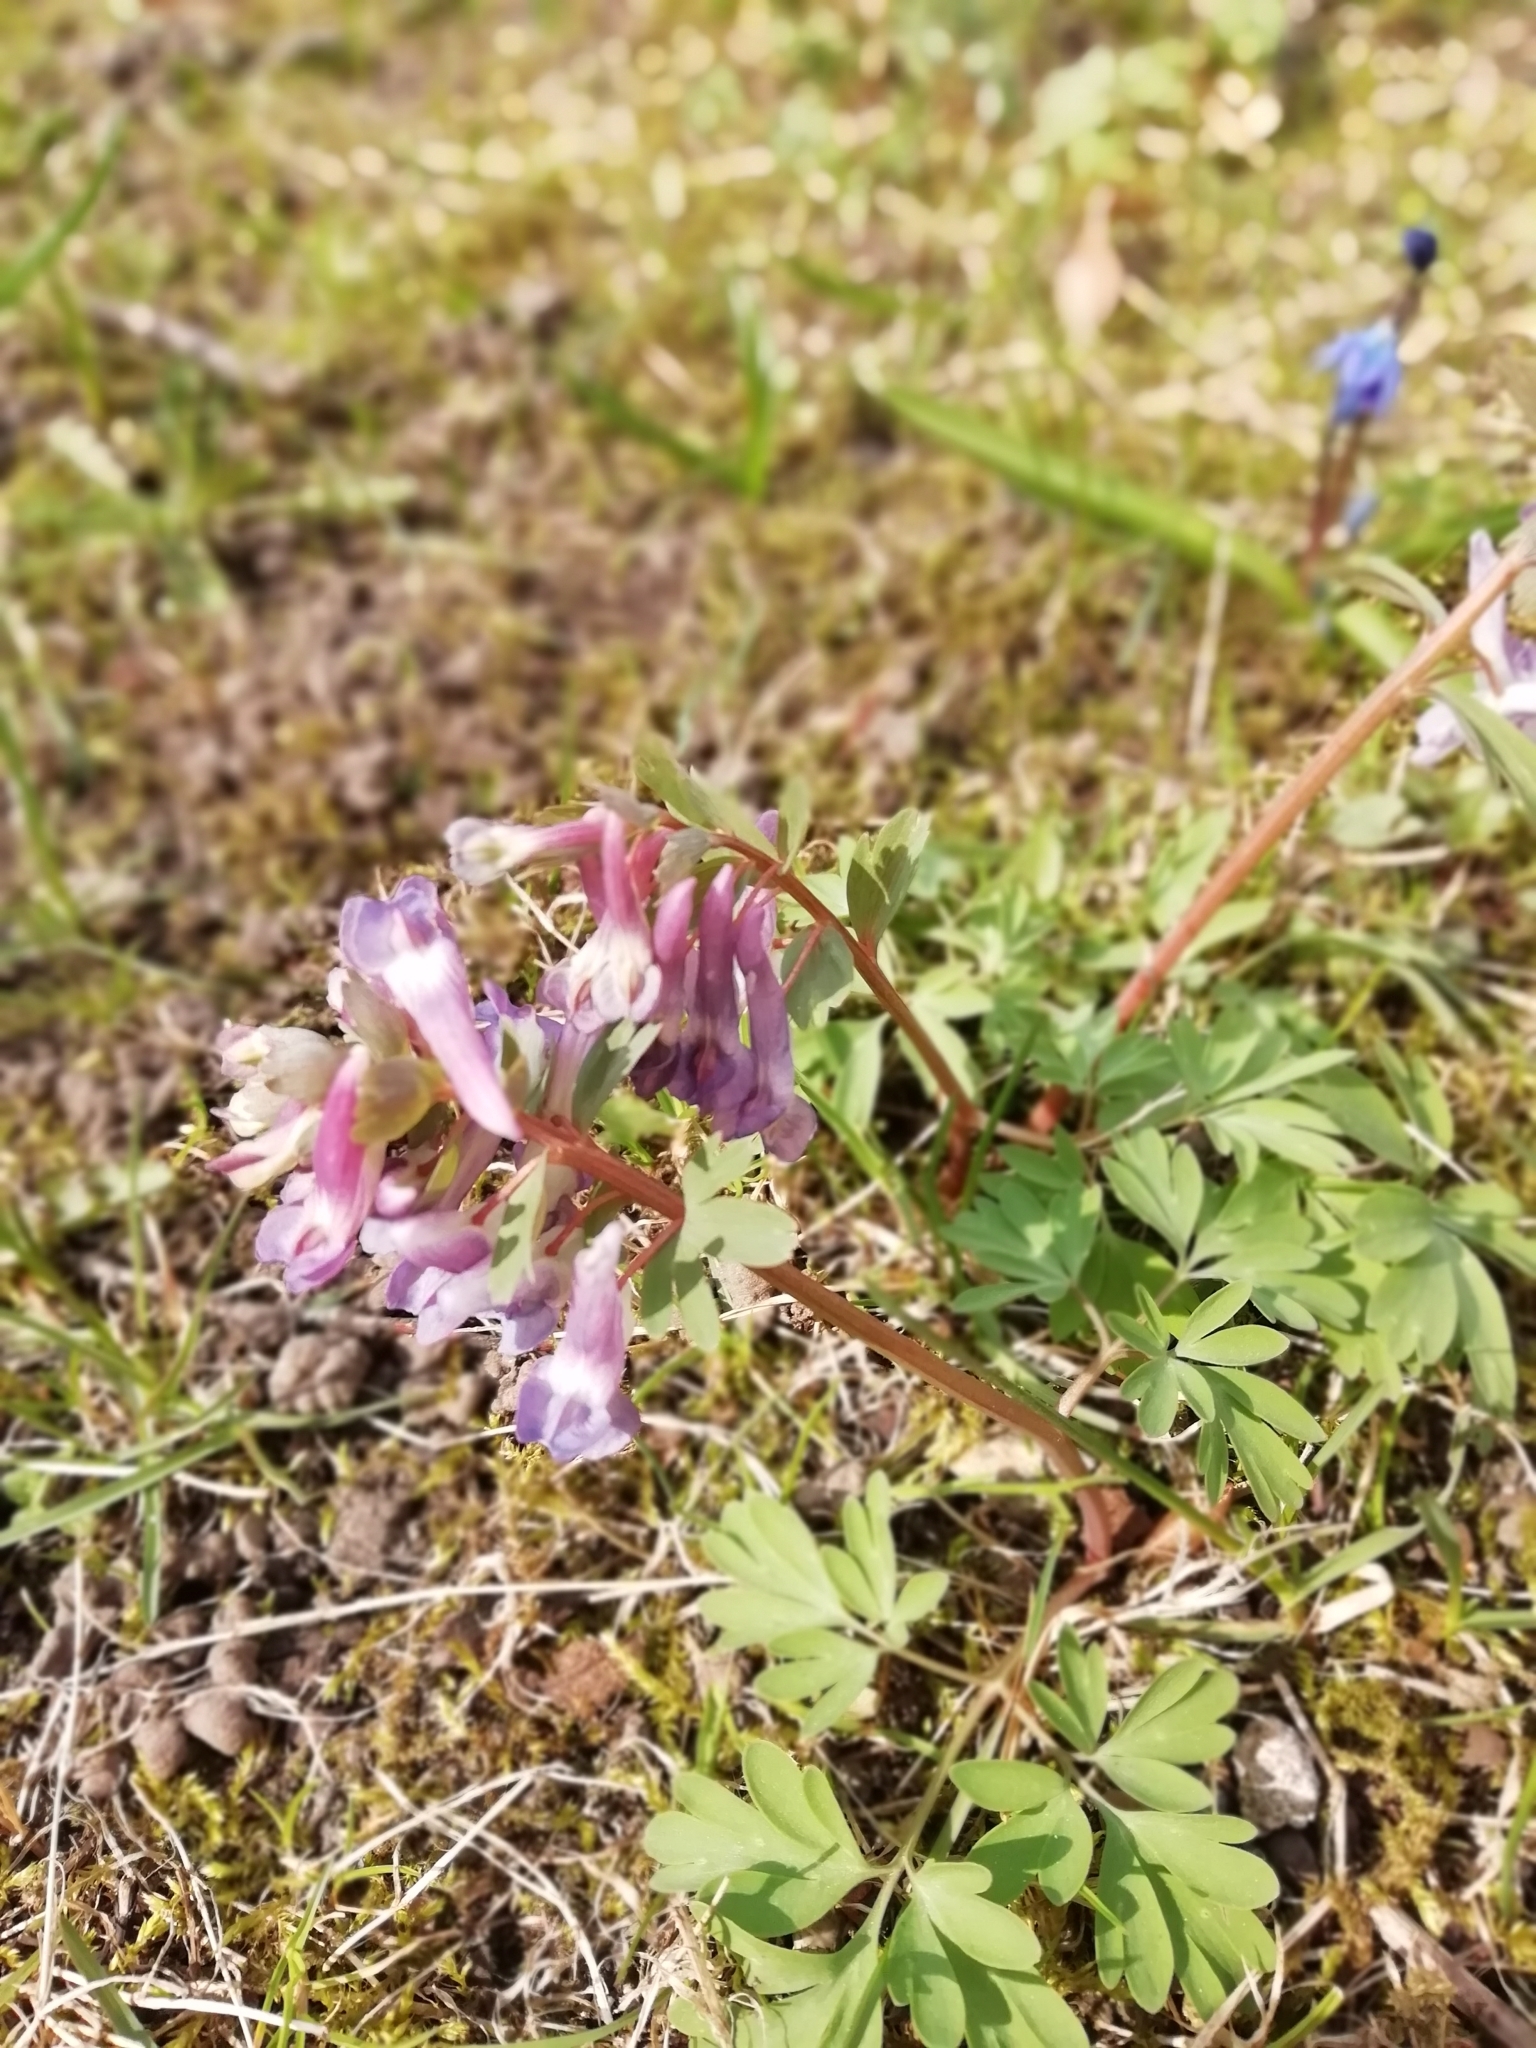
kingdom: Plantae
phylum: Tracheophyta
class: Magnoliopsida
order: Ranunculales
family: Papaveraceae
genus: Corydalis
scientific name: Corydalis solida
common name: Bird-in-a-bush
